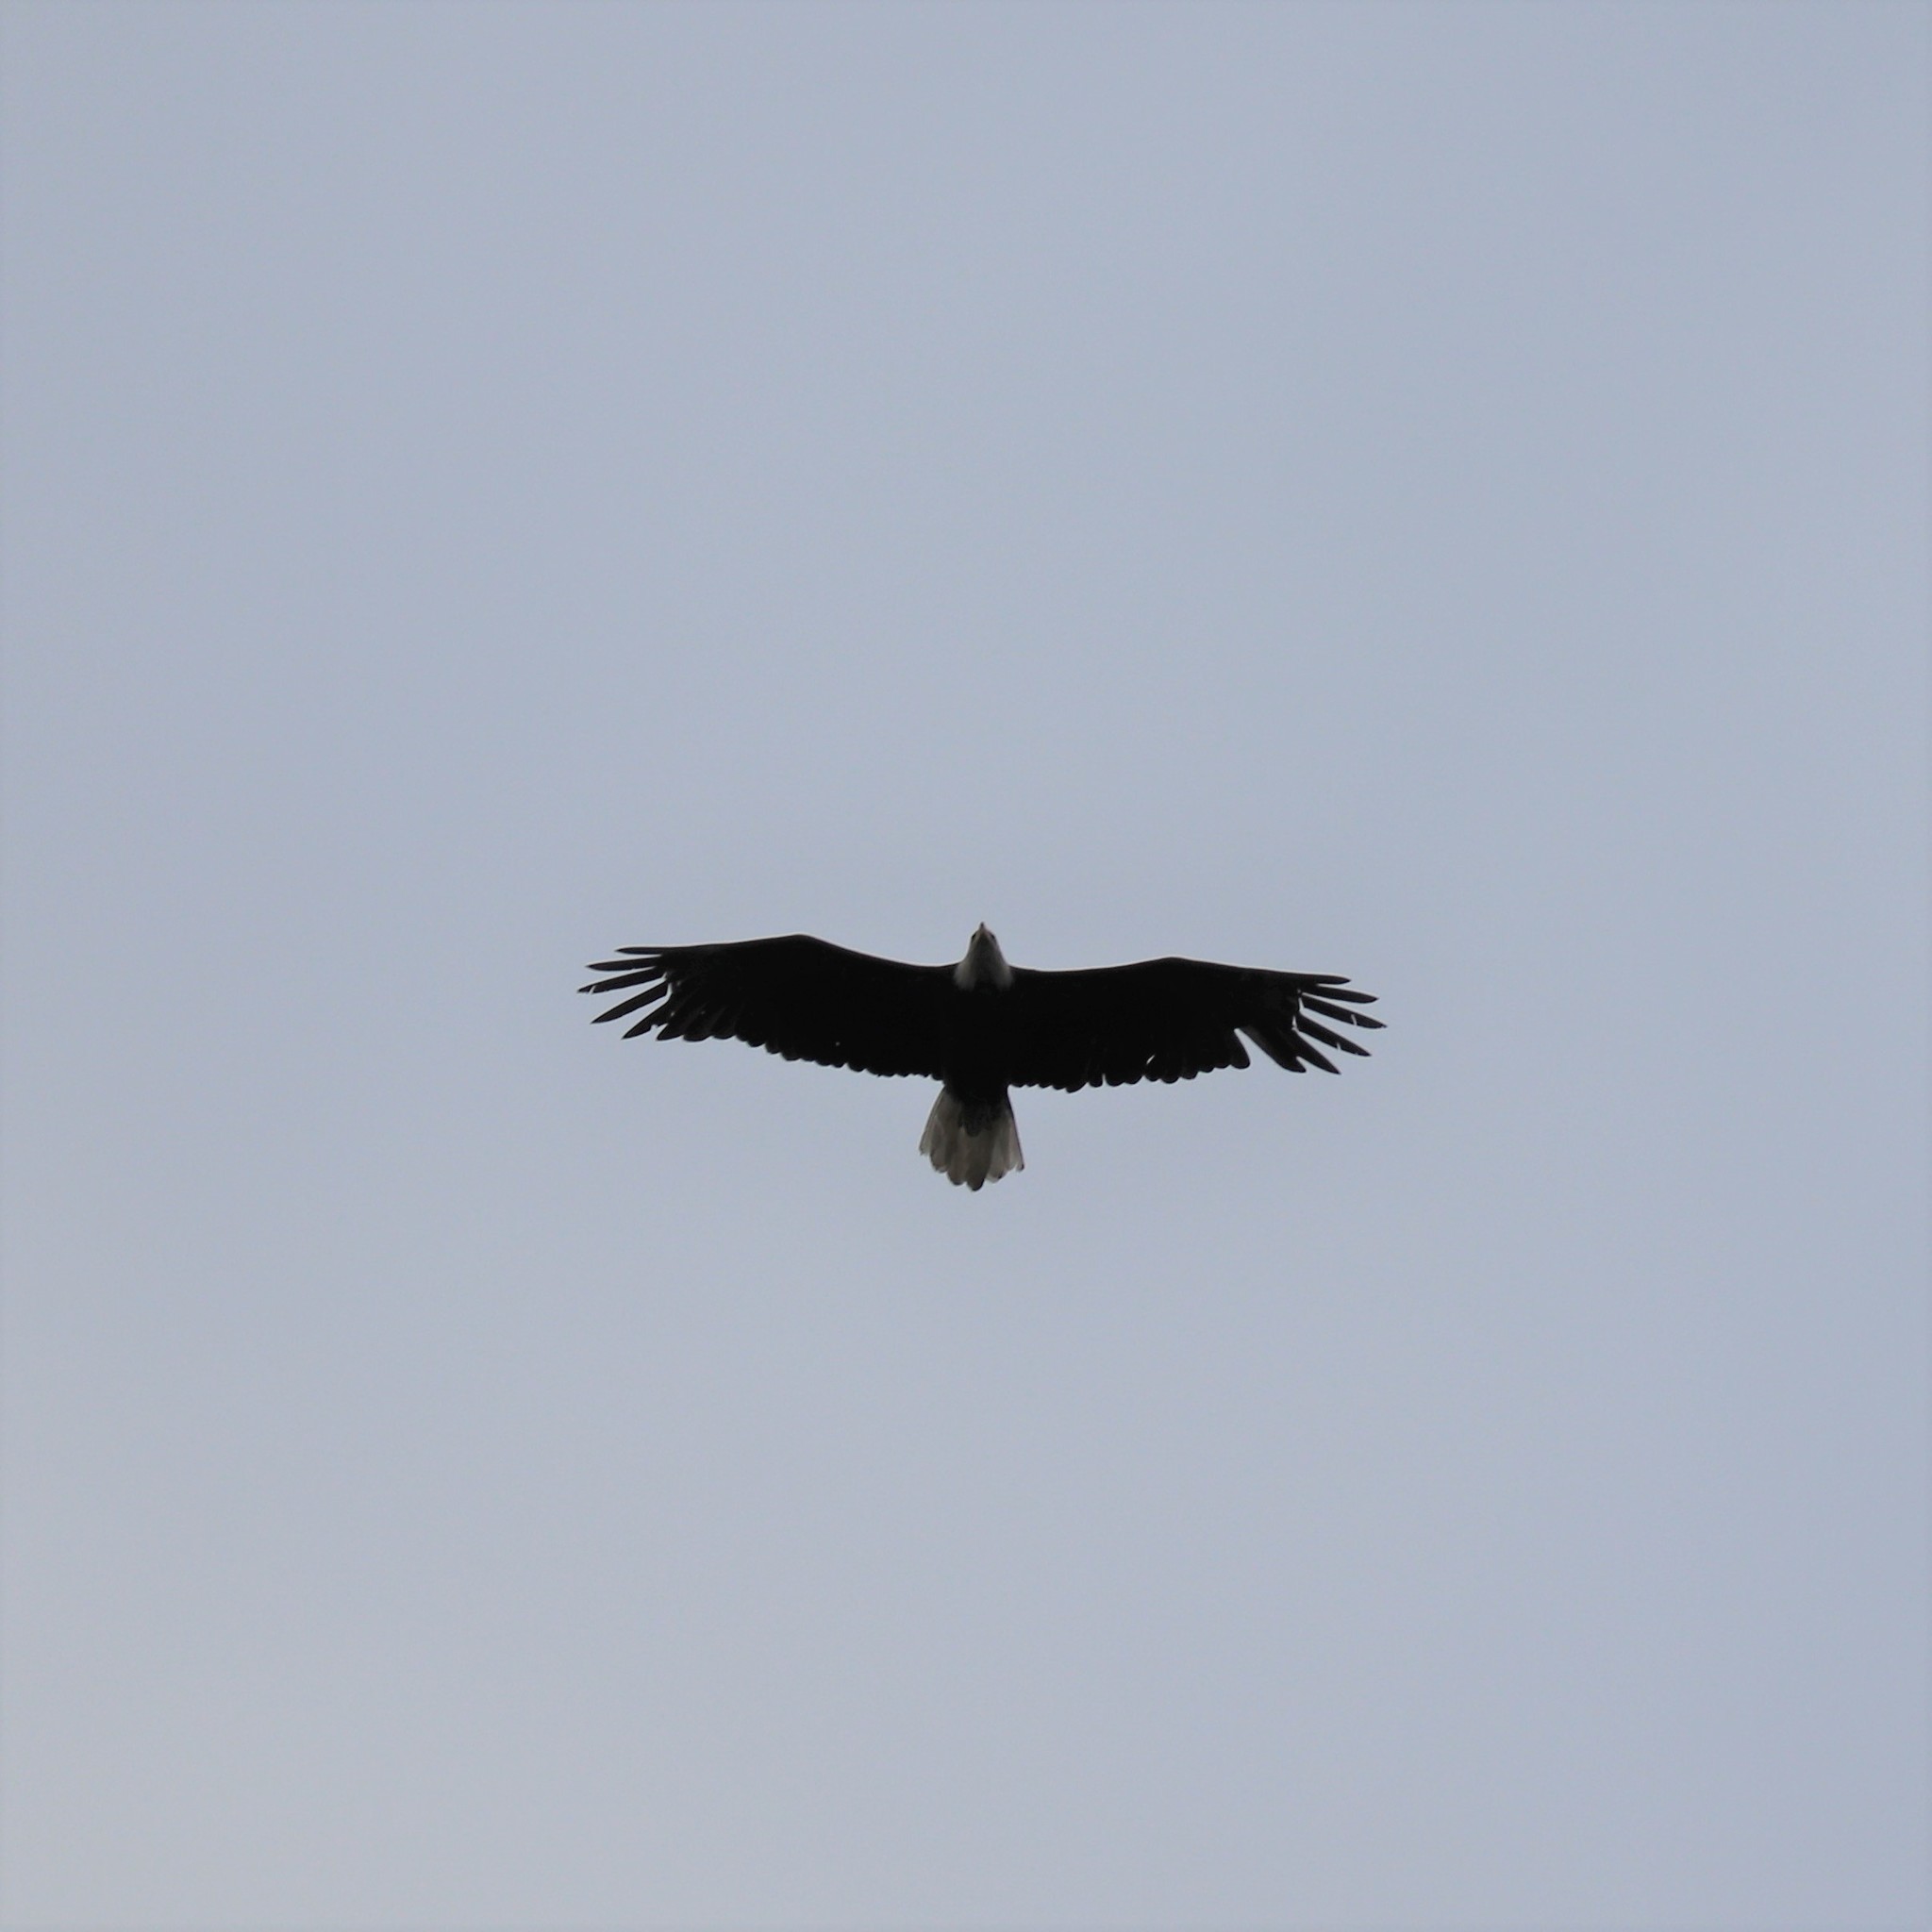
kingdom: Animalia
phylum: Chordata
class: Aves
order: Accipitriformes
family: Accipitridae
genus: Haliaeetus
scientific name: Haliaeetus leucocephalus
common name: Bald eagle
